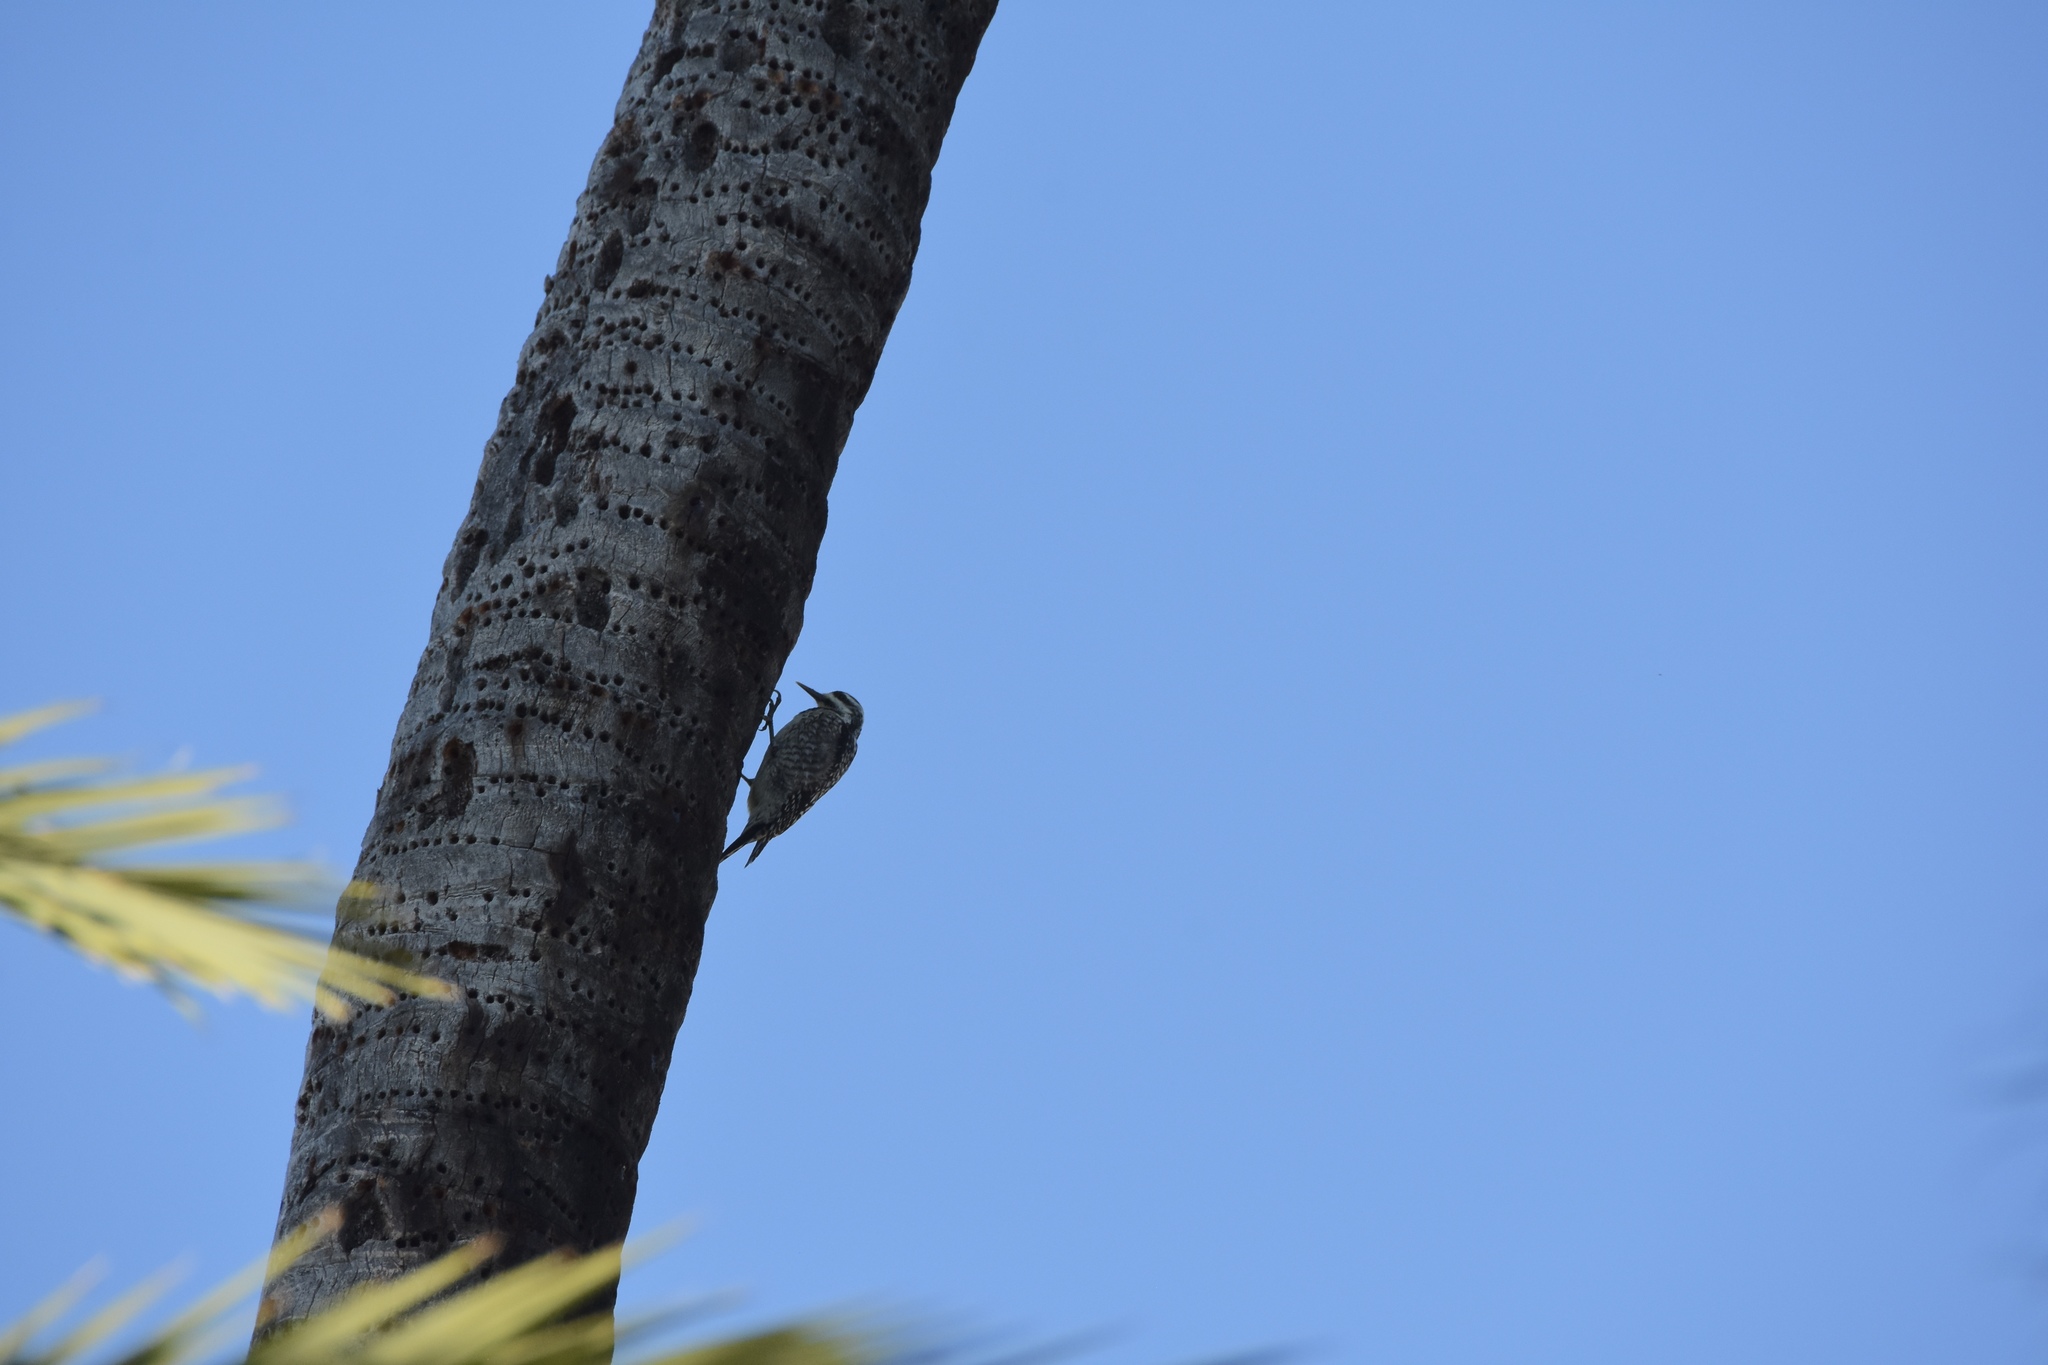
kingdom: Animalia
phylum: Chordata
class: Aves
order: Piciformes
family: Picidae
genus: Sphyrapicus
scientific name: Sphyrapicus varius
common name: Yellow-bellied sapsucker
